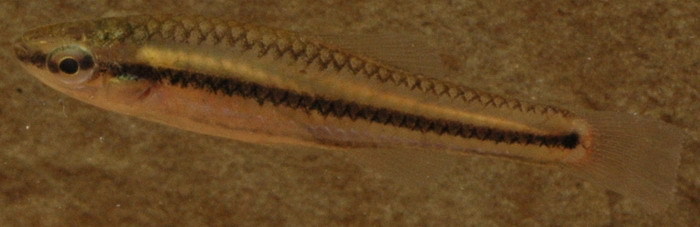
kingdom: Animalia
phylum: Chordata
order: Cyprinodontiformes
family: Fundulidae
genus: Lucania
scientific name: Lucania goodei
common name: Bluefin killifish
